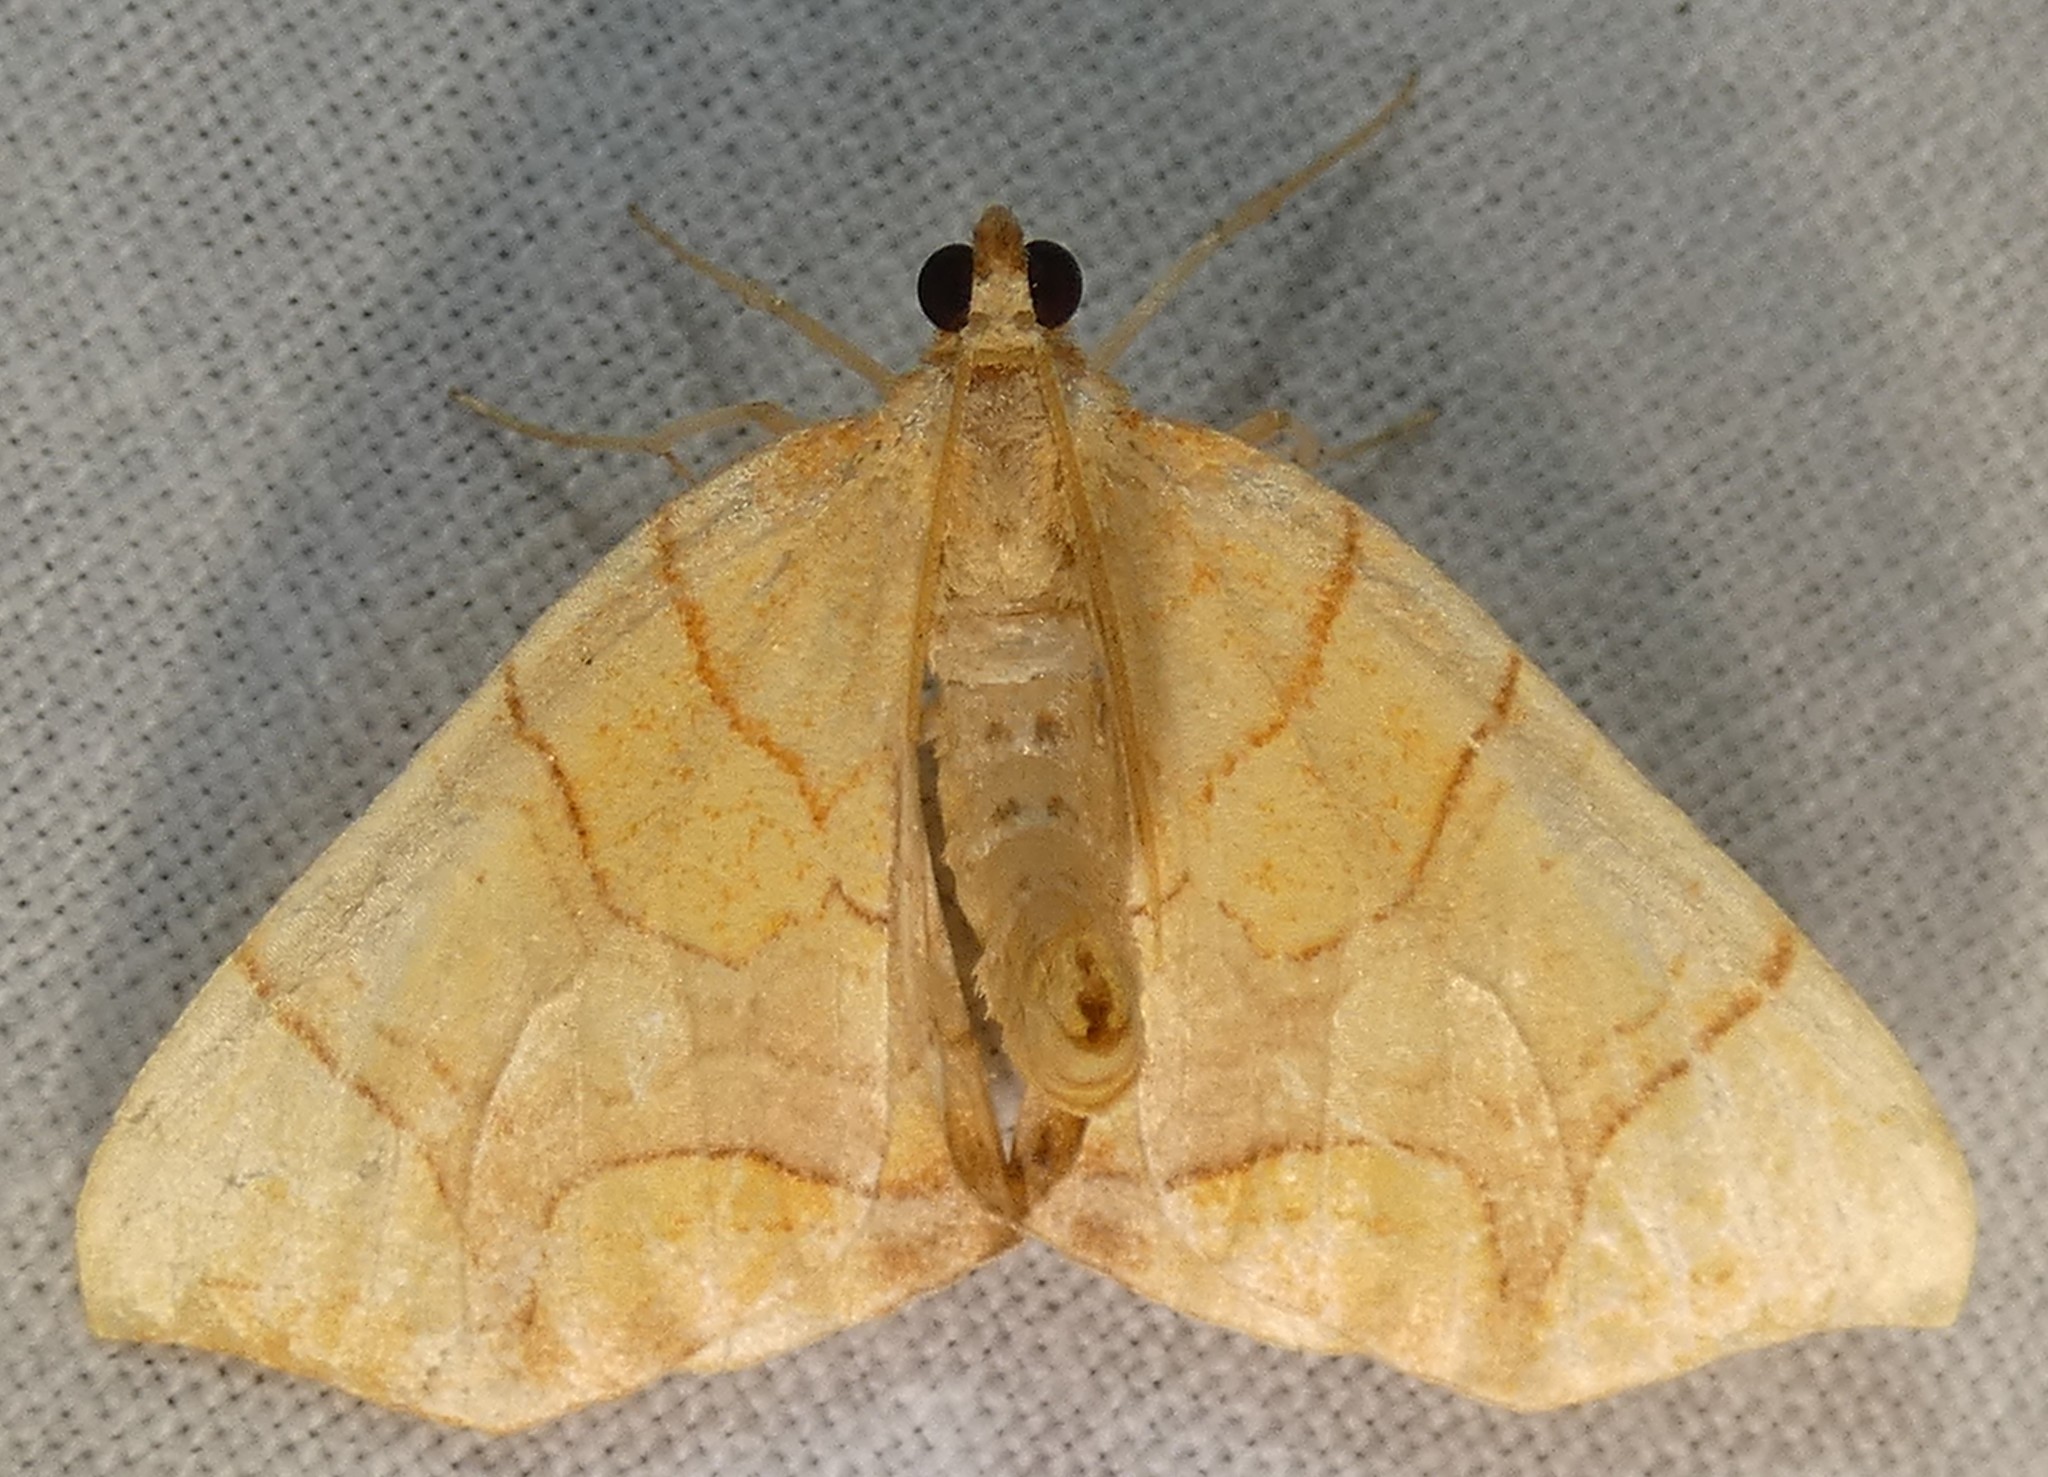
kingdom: Animalia
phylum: Arthropoda
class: Insecta
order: Lepidoptera
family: Geometridae
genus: Eulithis
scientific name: Eulithis
